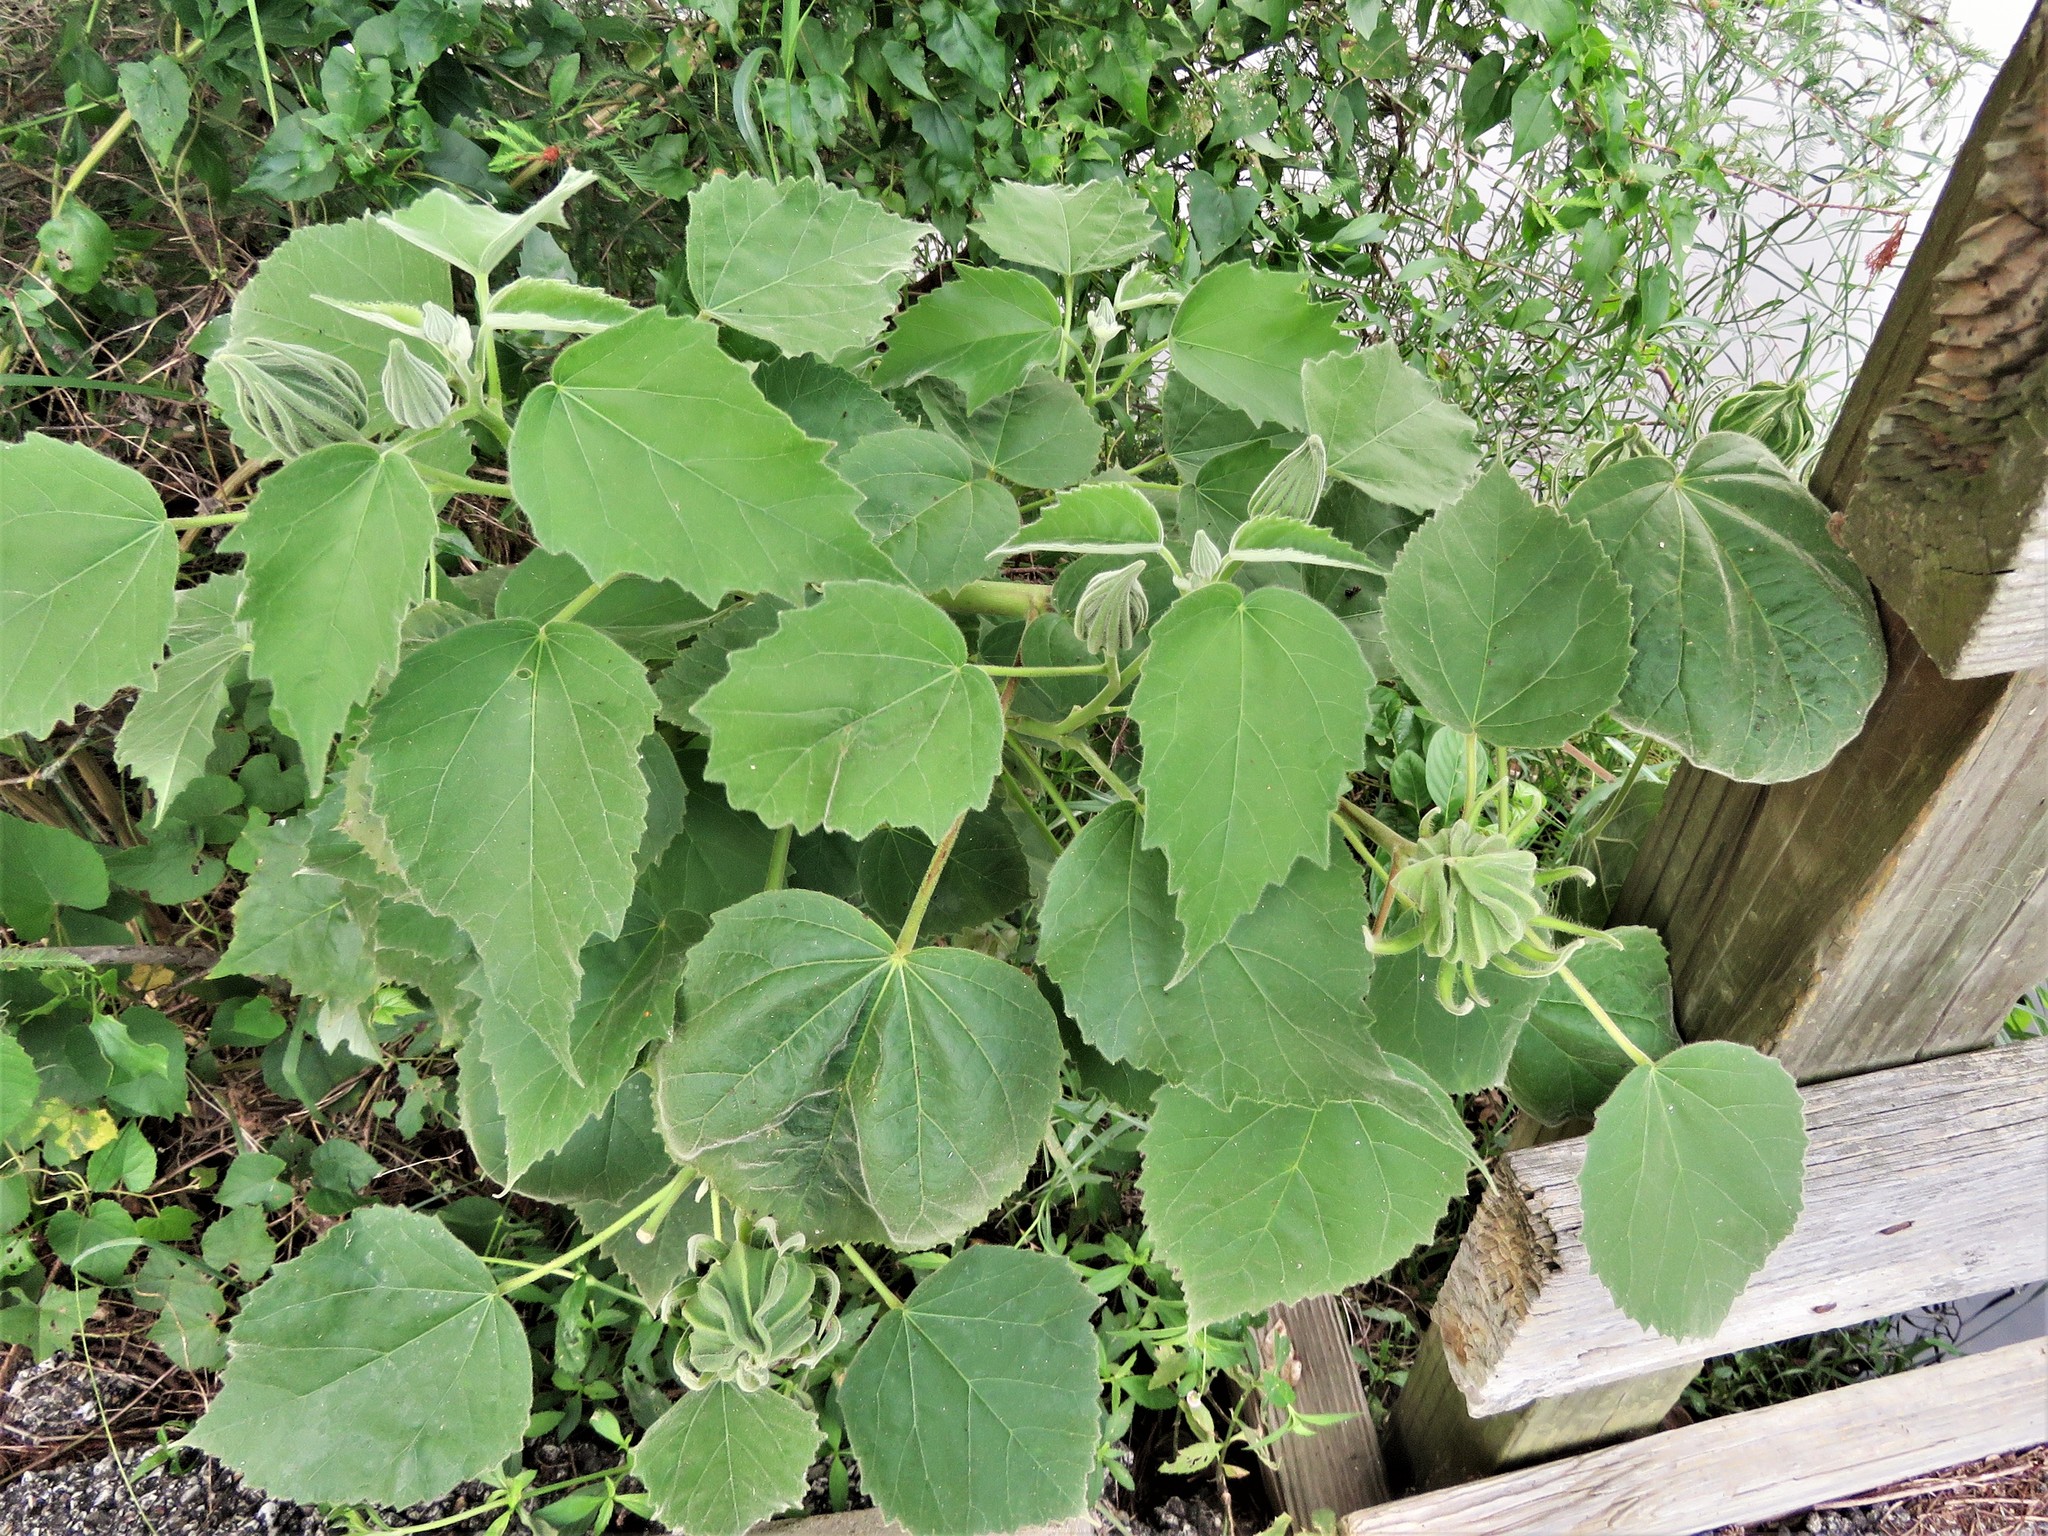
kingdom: Plantae
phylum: Tracheophyta
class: Magnoliopsida
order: Malvales
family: Malvaceae
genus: Hibiscus
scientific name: Hibiscus moscheutos
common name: Common rose-mallow
